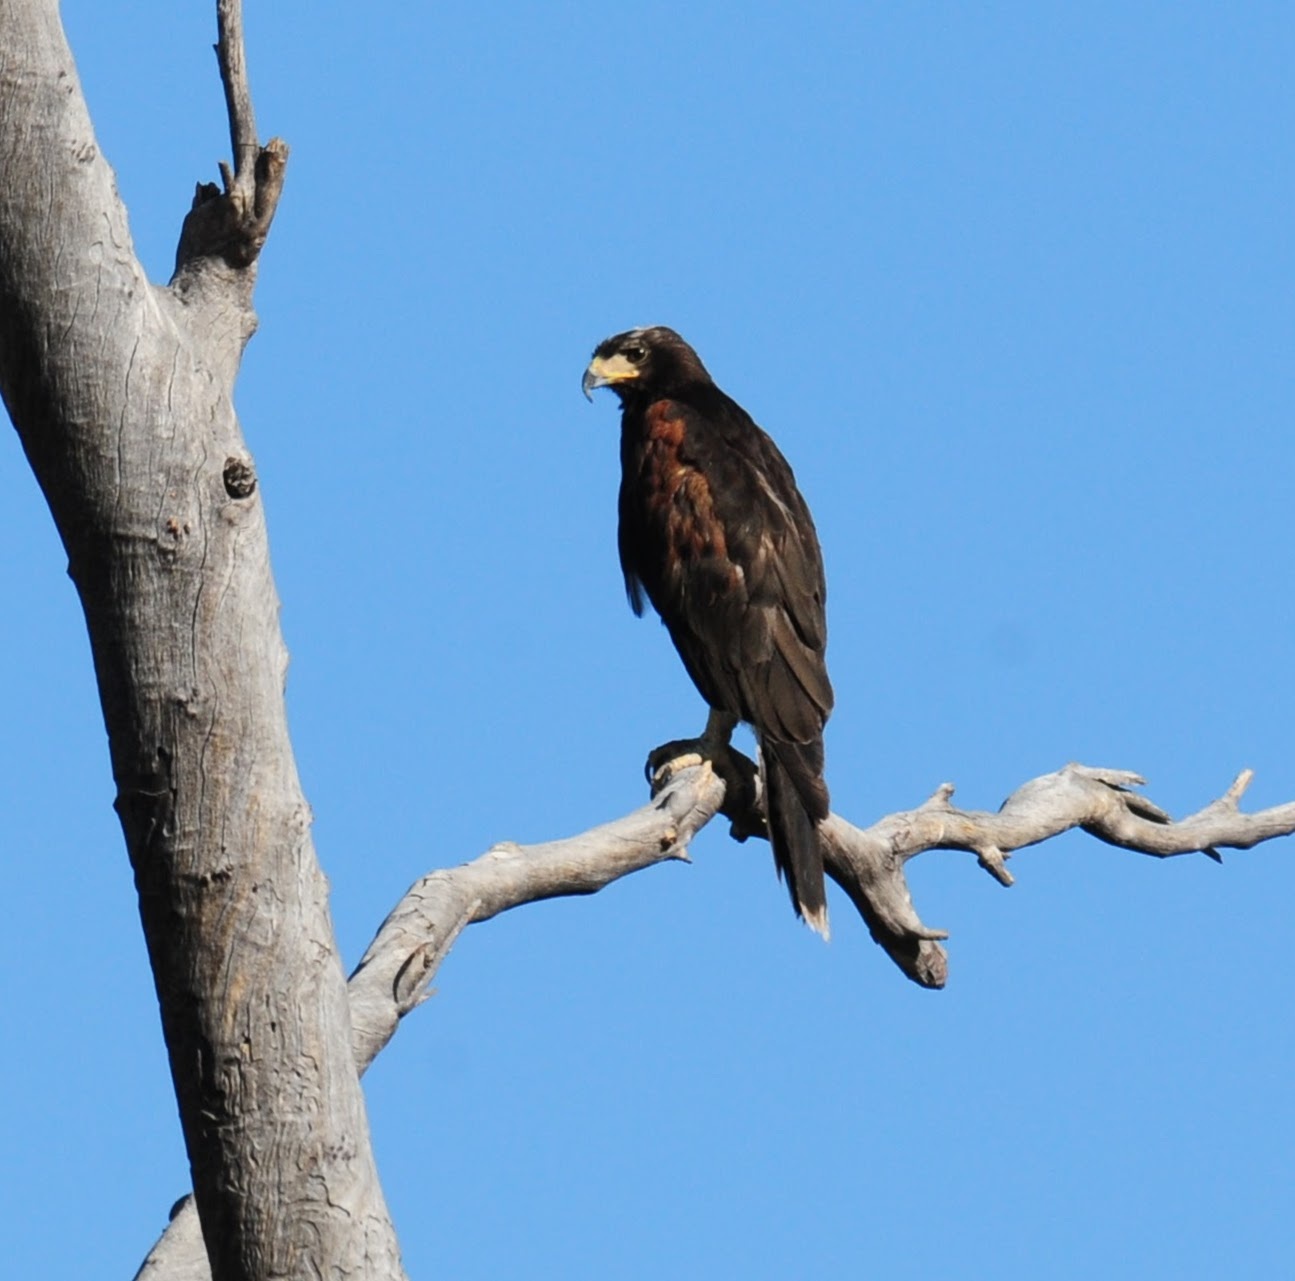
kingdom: Animalia
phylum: Chordata
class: Aves
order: Accipitriformes
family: Accipitridae
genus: Parabuteo
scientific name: Parabuteo unicinctus
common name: Harris's hawk
